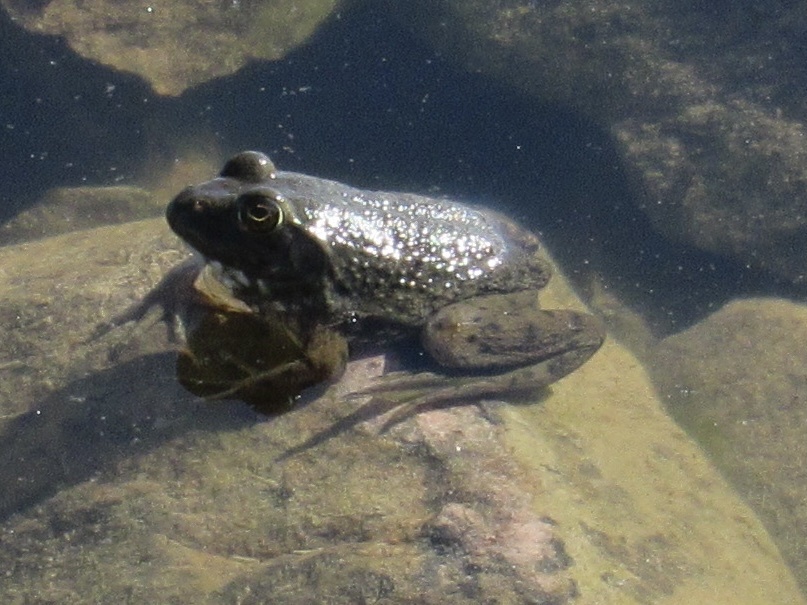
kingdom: Animalia
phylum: Chordata
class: Amphibia
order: Anura
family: Ranidae
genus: Lithobates
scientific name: Lithobates catesbeianus
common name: American bullfrog
